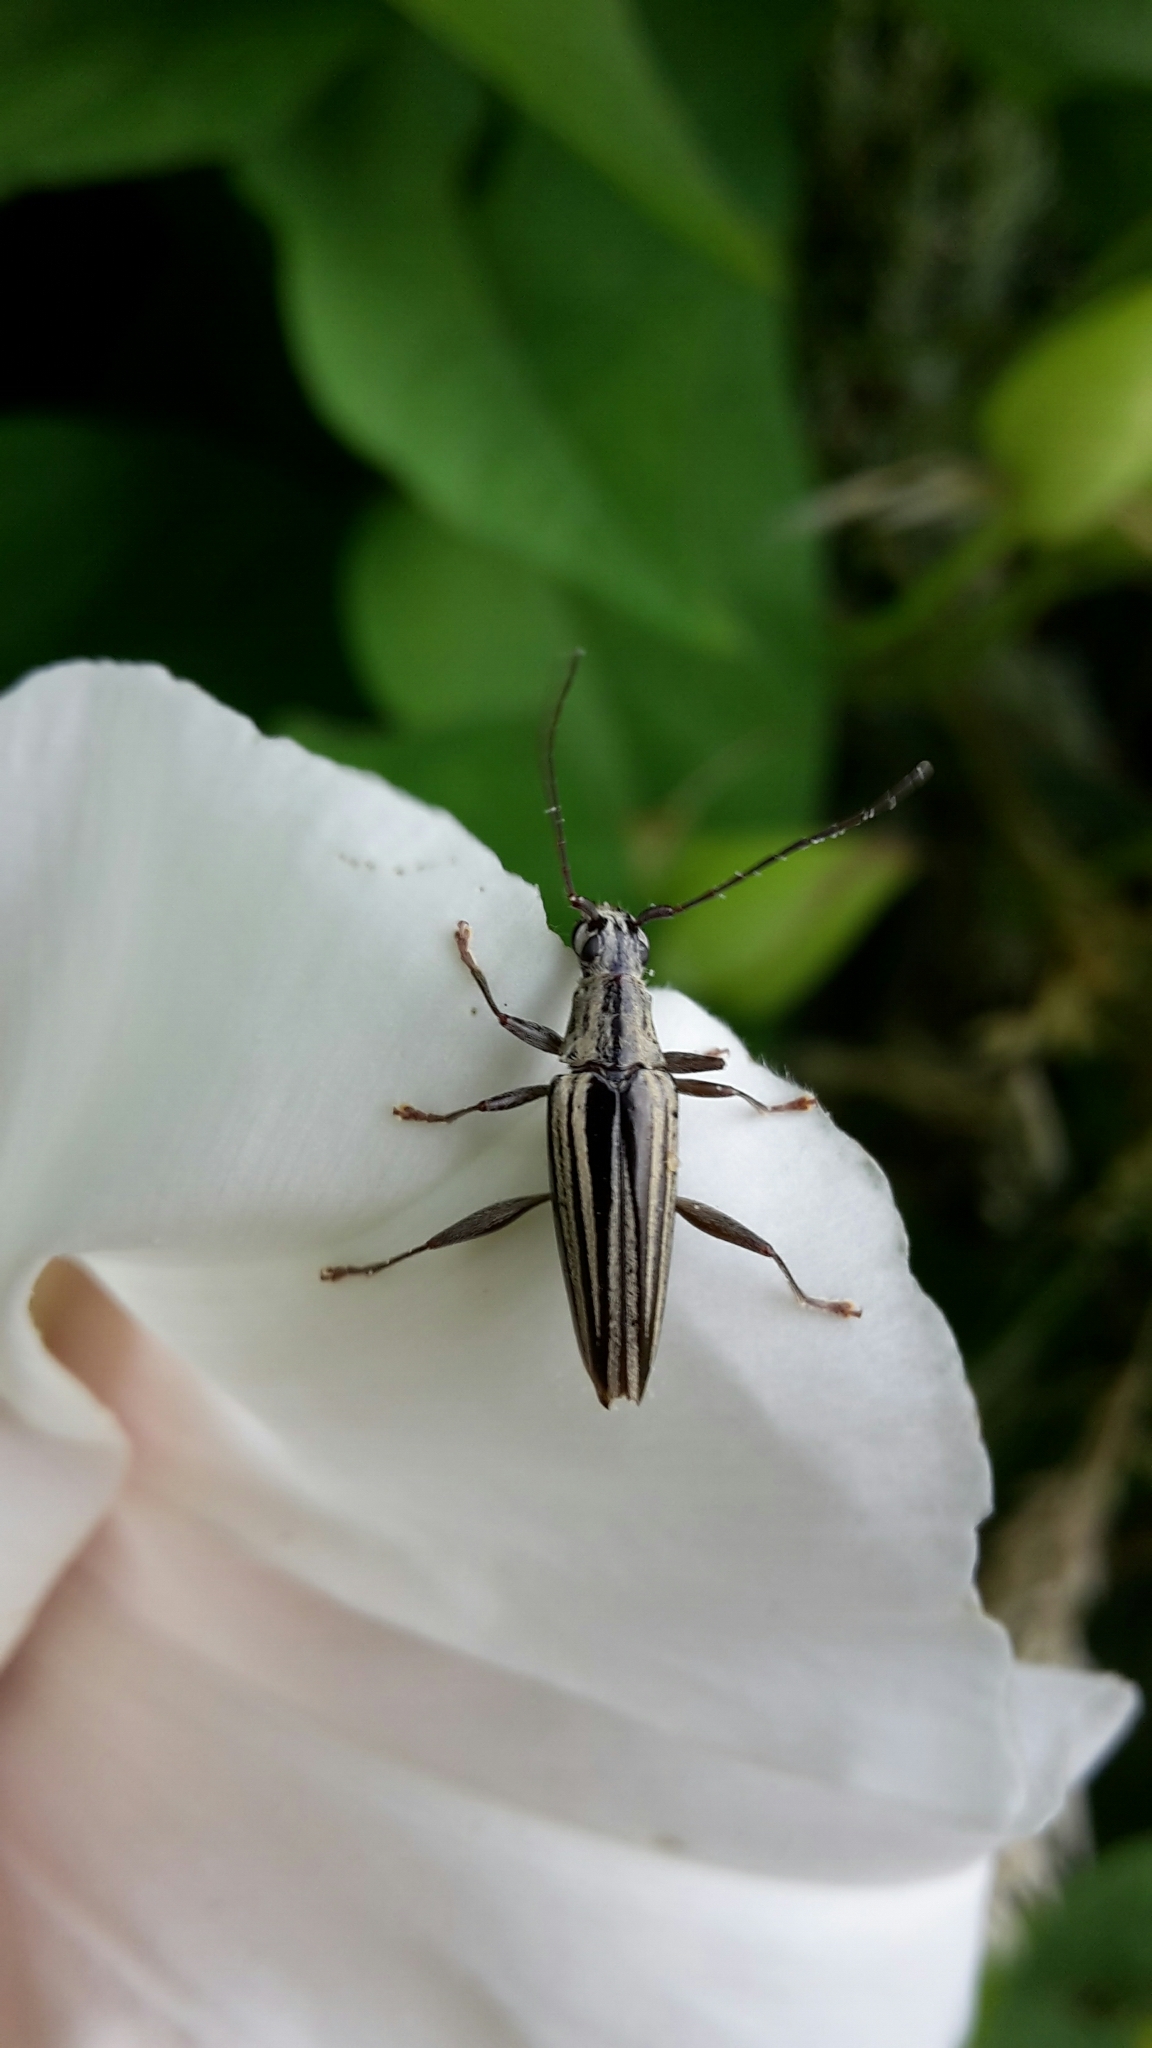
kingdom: Animalia
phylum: Arthropoda
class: Insecta
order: Coleoptera
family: Cerambycidae
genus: Coptomma
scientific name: Coptomma sulcatum
